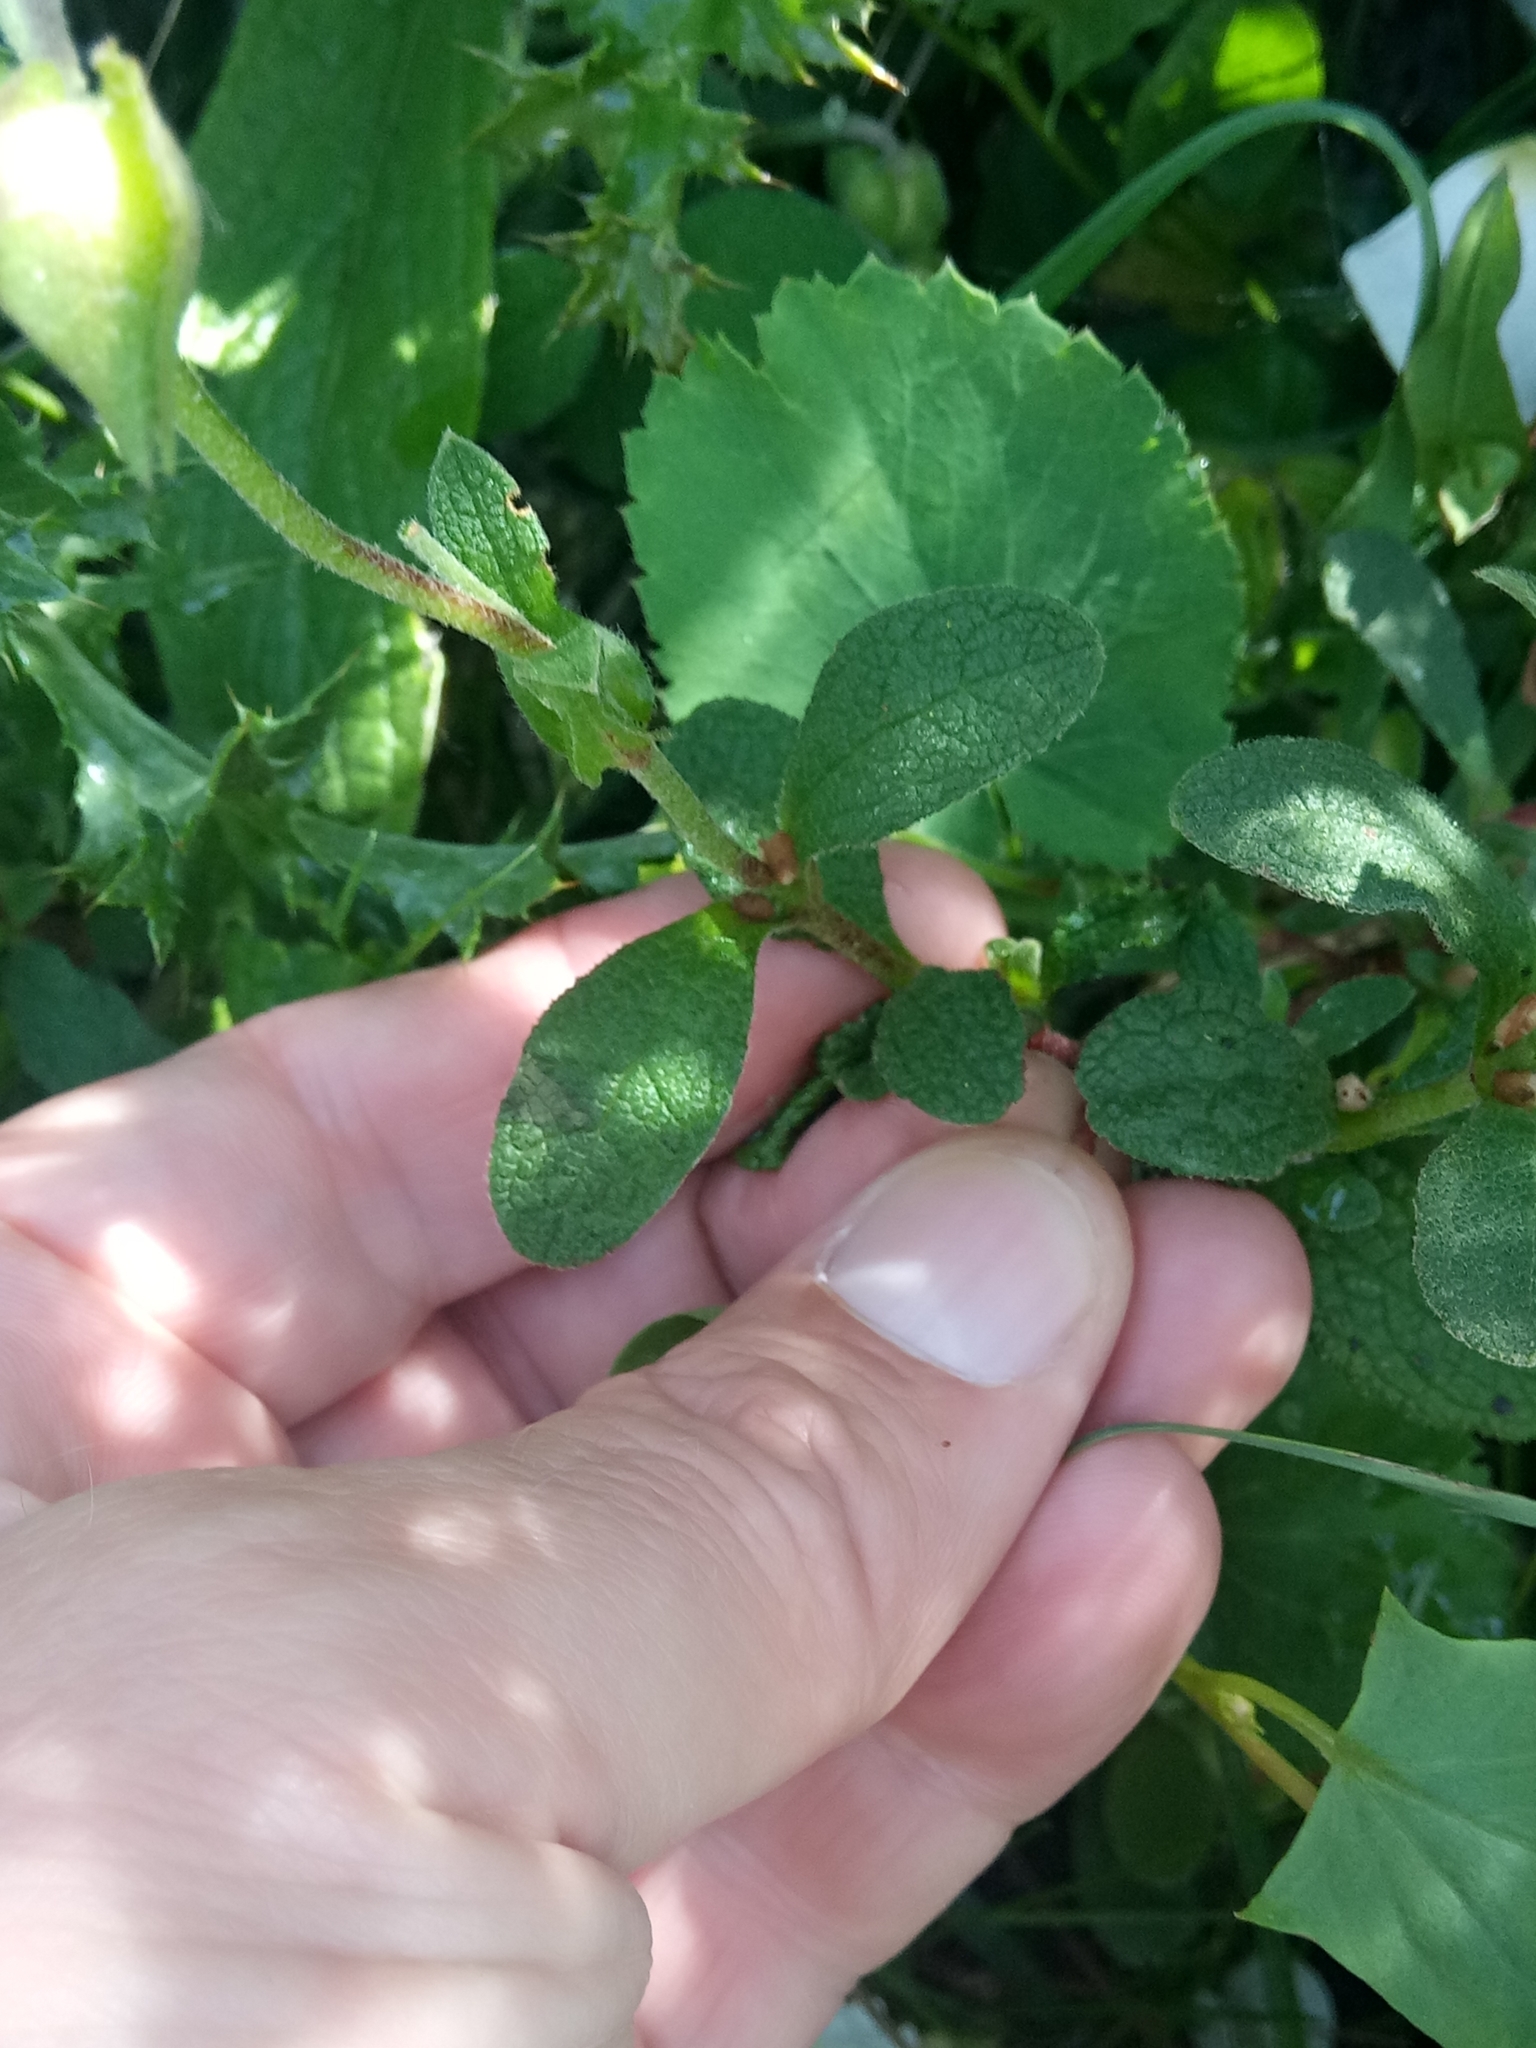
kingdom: Plantae
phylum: Tracheophyta
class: Magnoliopsida
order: Malvales
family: Cistaceae
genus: Cistus
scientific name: Cistus salviifolius
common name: Salvia cistus
